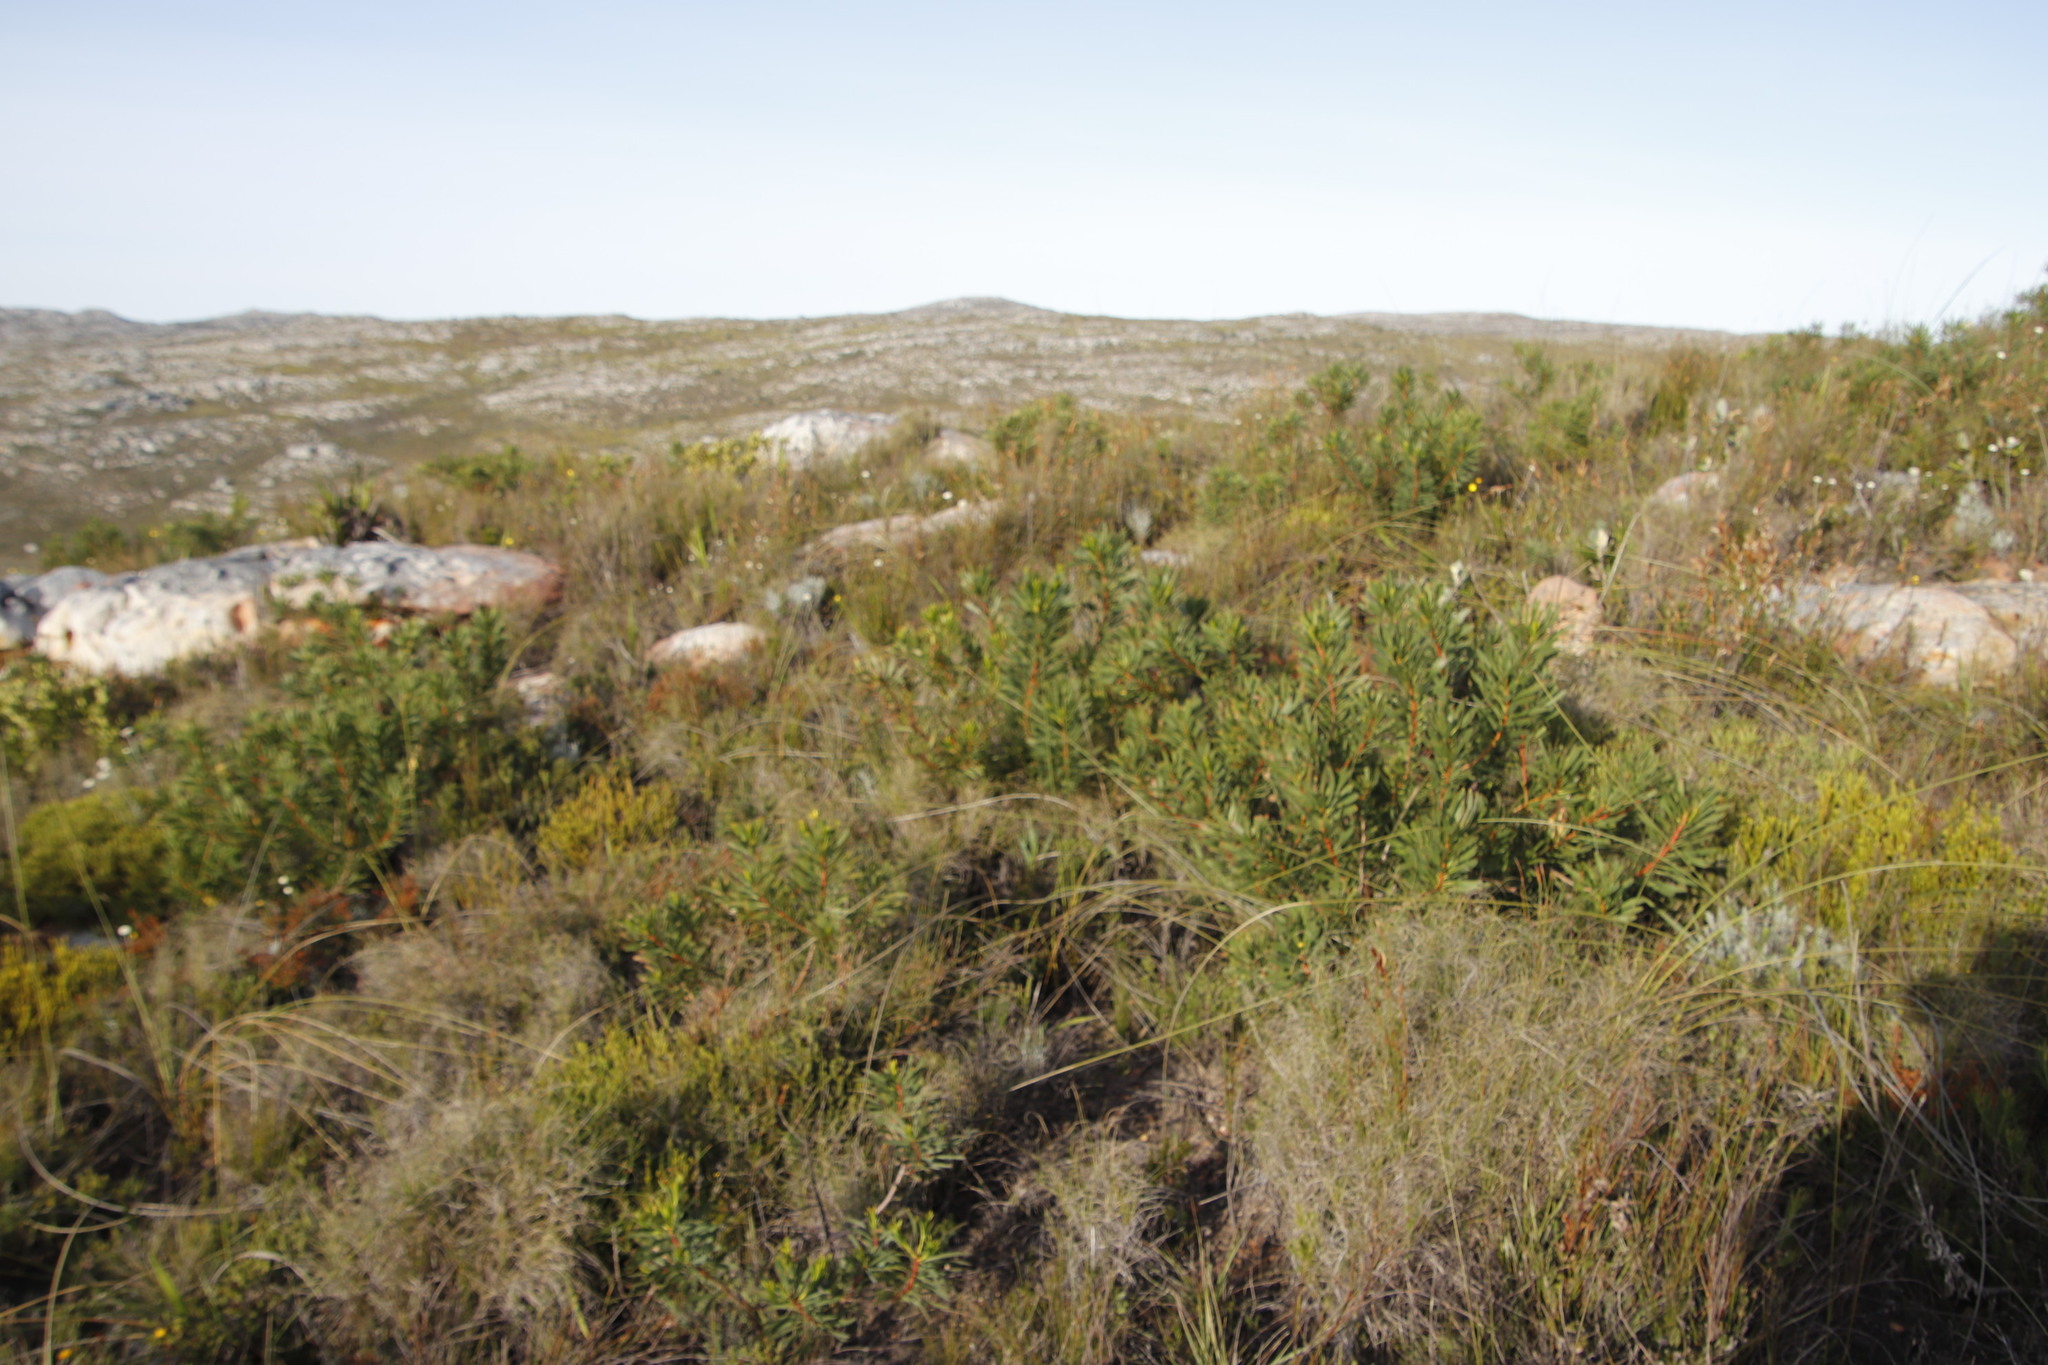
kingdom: Plantae
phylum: Tracheophyta
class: Magnoliopsida
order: Proteales
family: Proteaceae
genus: Protea
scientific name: Protea repens
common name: Sugarbush
